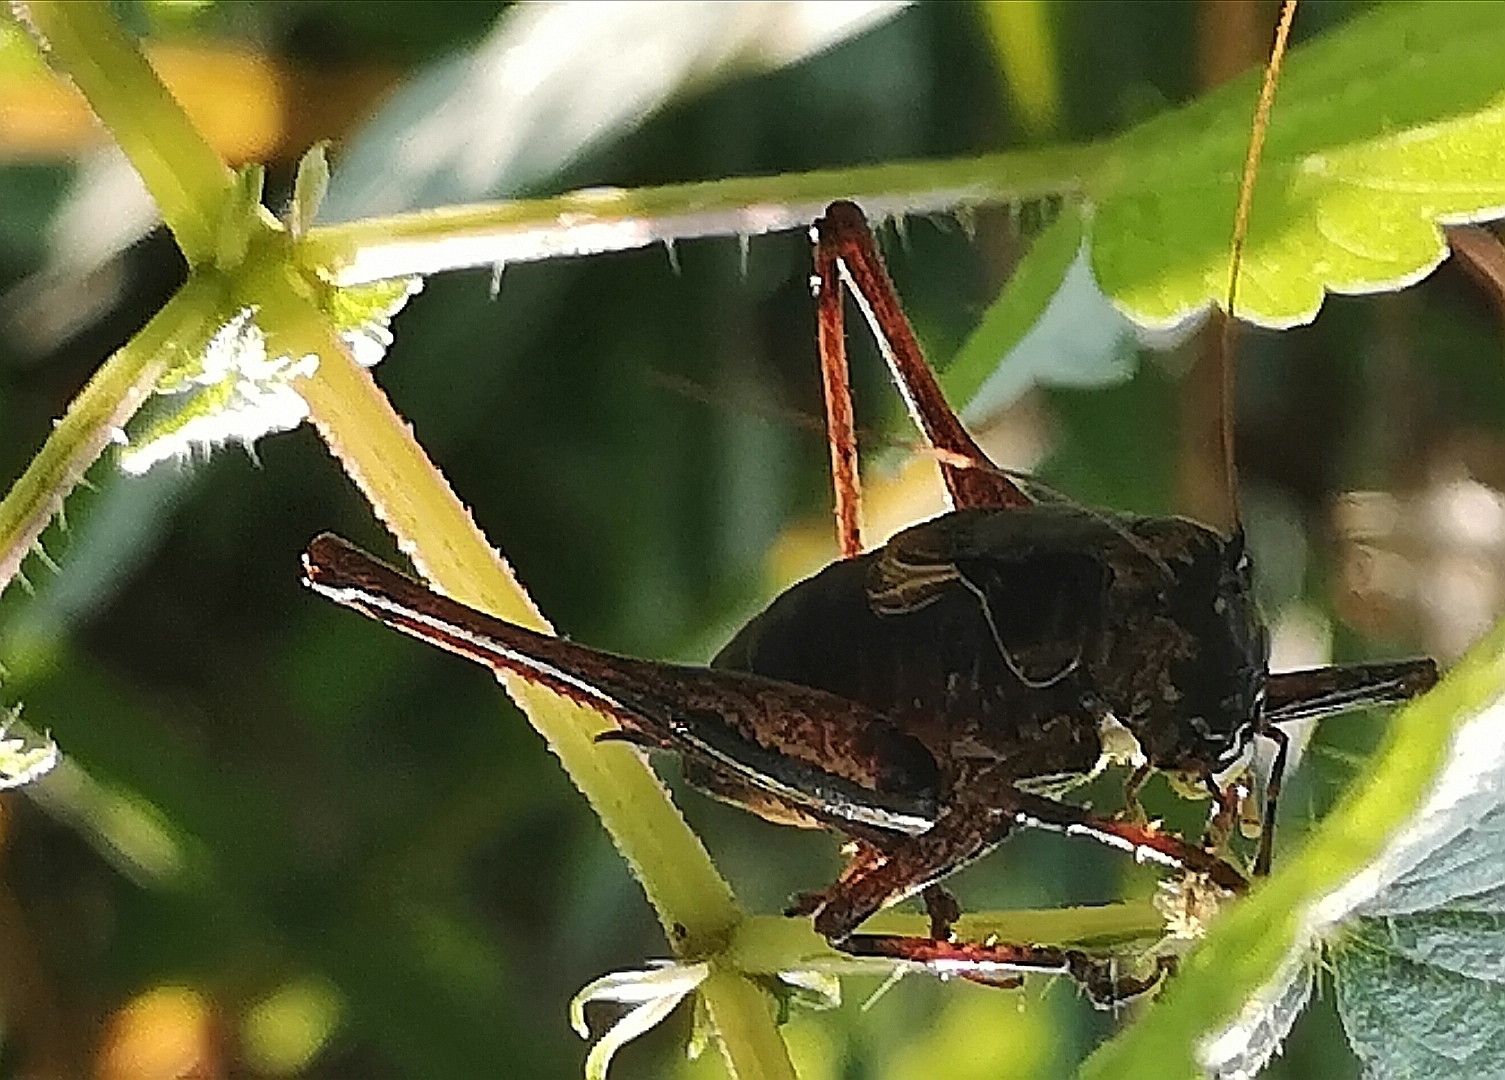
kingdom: Animalia
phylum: Arthropoda
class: Insecta
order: Orthoptera
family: Tettigoniidae
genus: Pholidoptera
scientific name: Pholidoptera griseoaptera
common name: Dark bush-cricket
